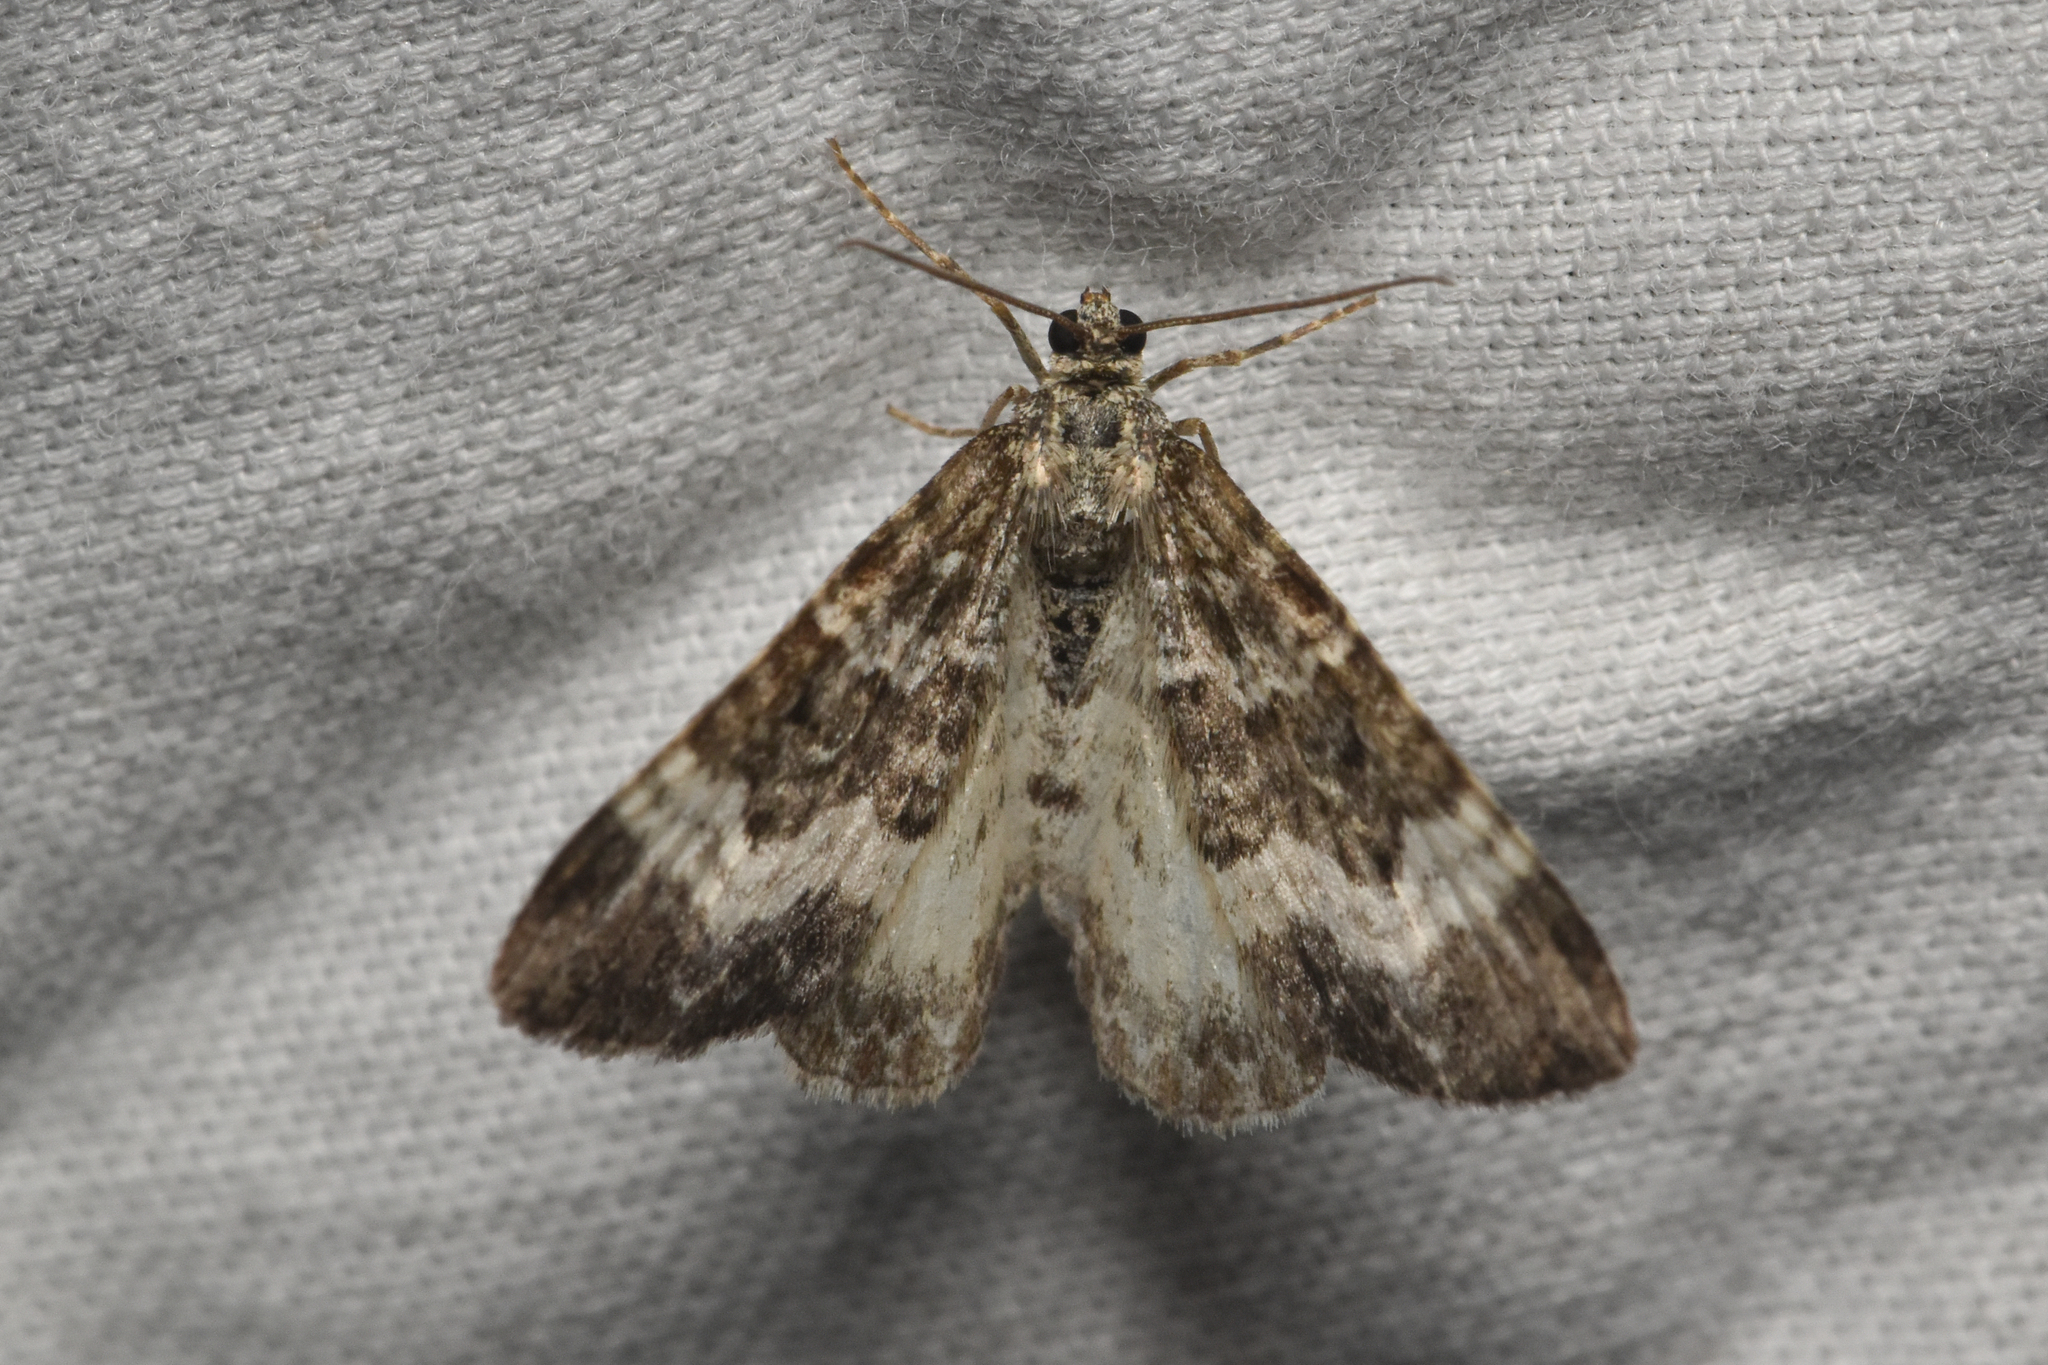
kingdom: Animalia
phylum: Arthropoda
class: Insecta
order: Lepidoptera
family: Geometridae
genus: Epirrhoe
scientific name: Epirrhoe alternata
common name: Common carpet
